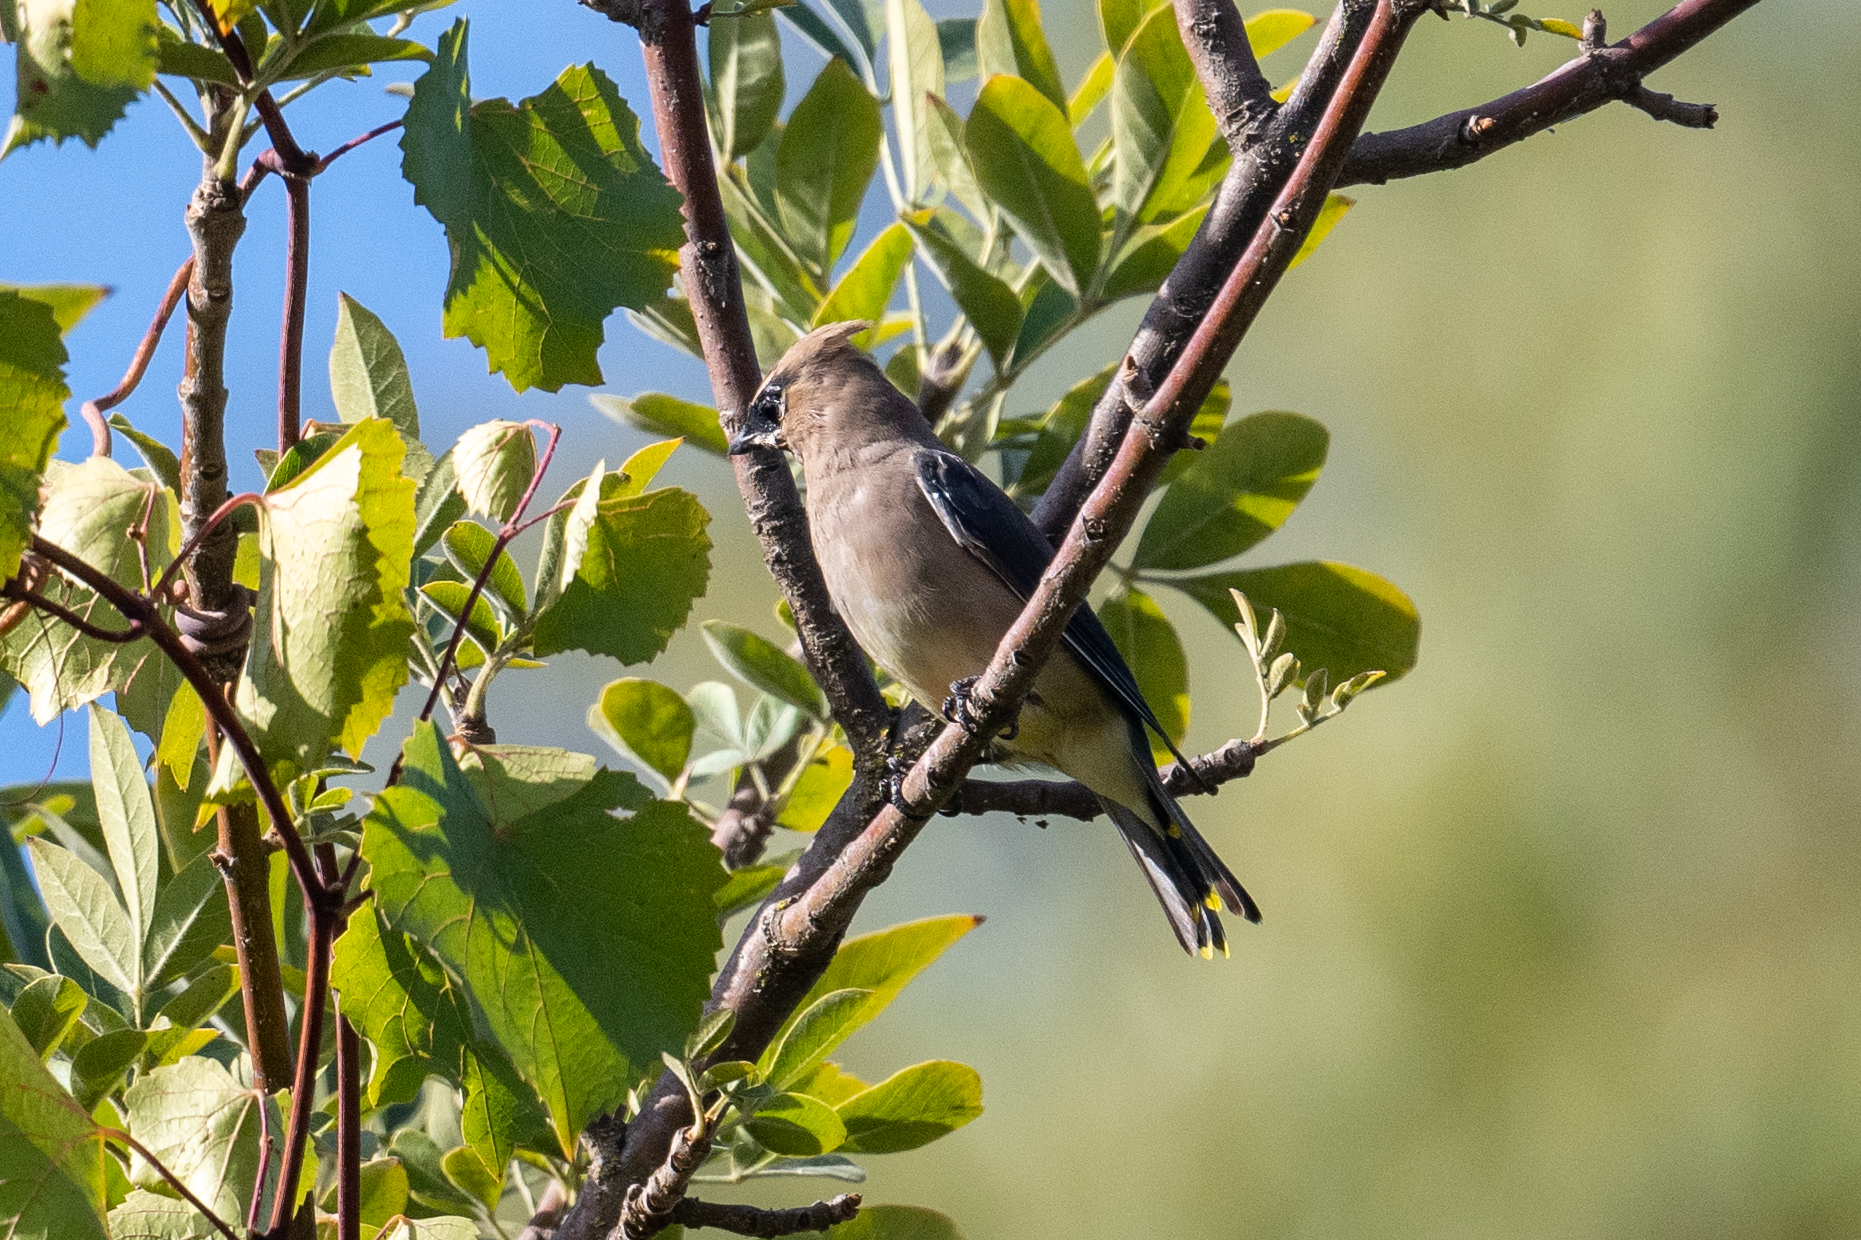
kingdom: Animalia
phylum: Chordata
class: Aves
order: Passeriformes
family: Bombycillidae
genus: Bombycilla
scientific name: Bombycilla cedrorum
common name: Cedar waxwing
